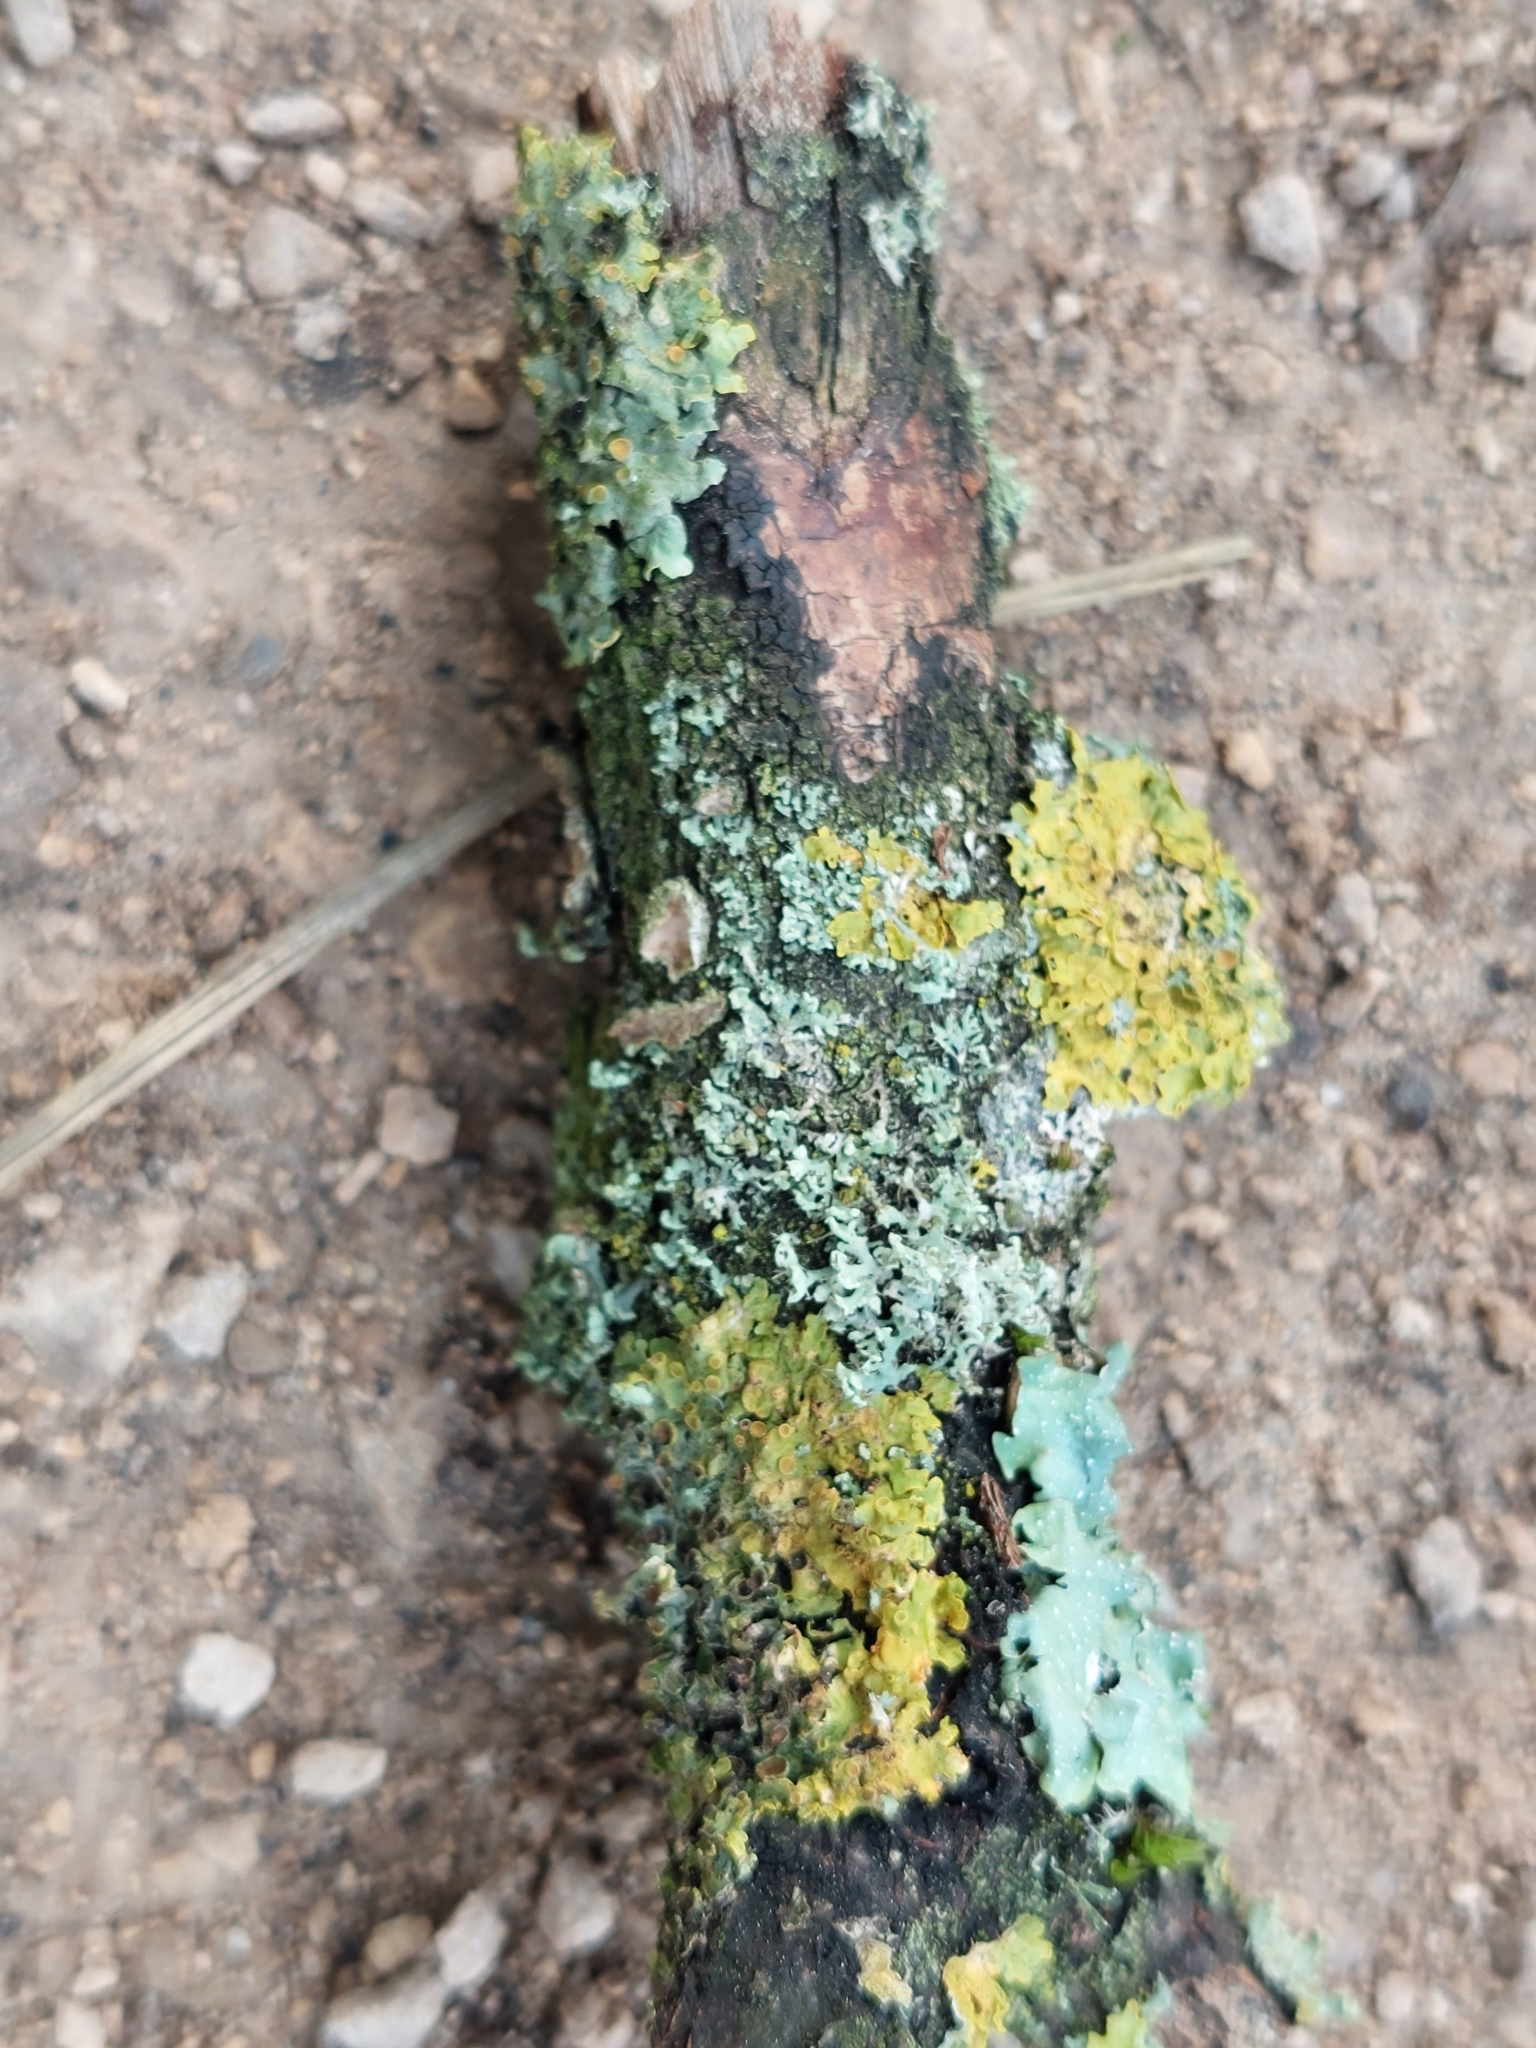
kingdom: Fungi
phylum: Ascomycota
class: Lecanoromycetes
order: Teloschistales
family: Teloschistaceae
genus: Xanthoria
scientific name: Xanthoria parietina
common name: Common orange lichen
